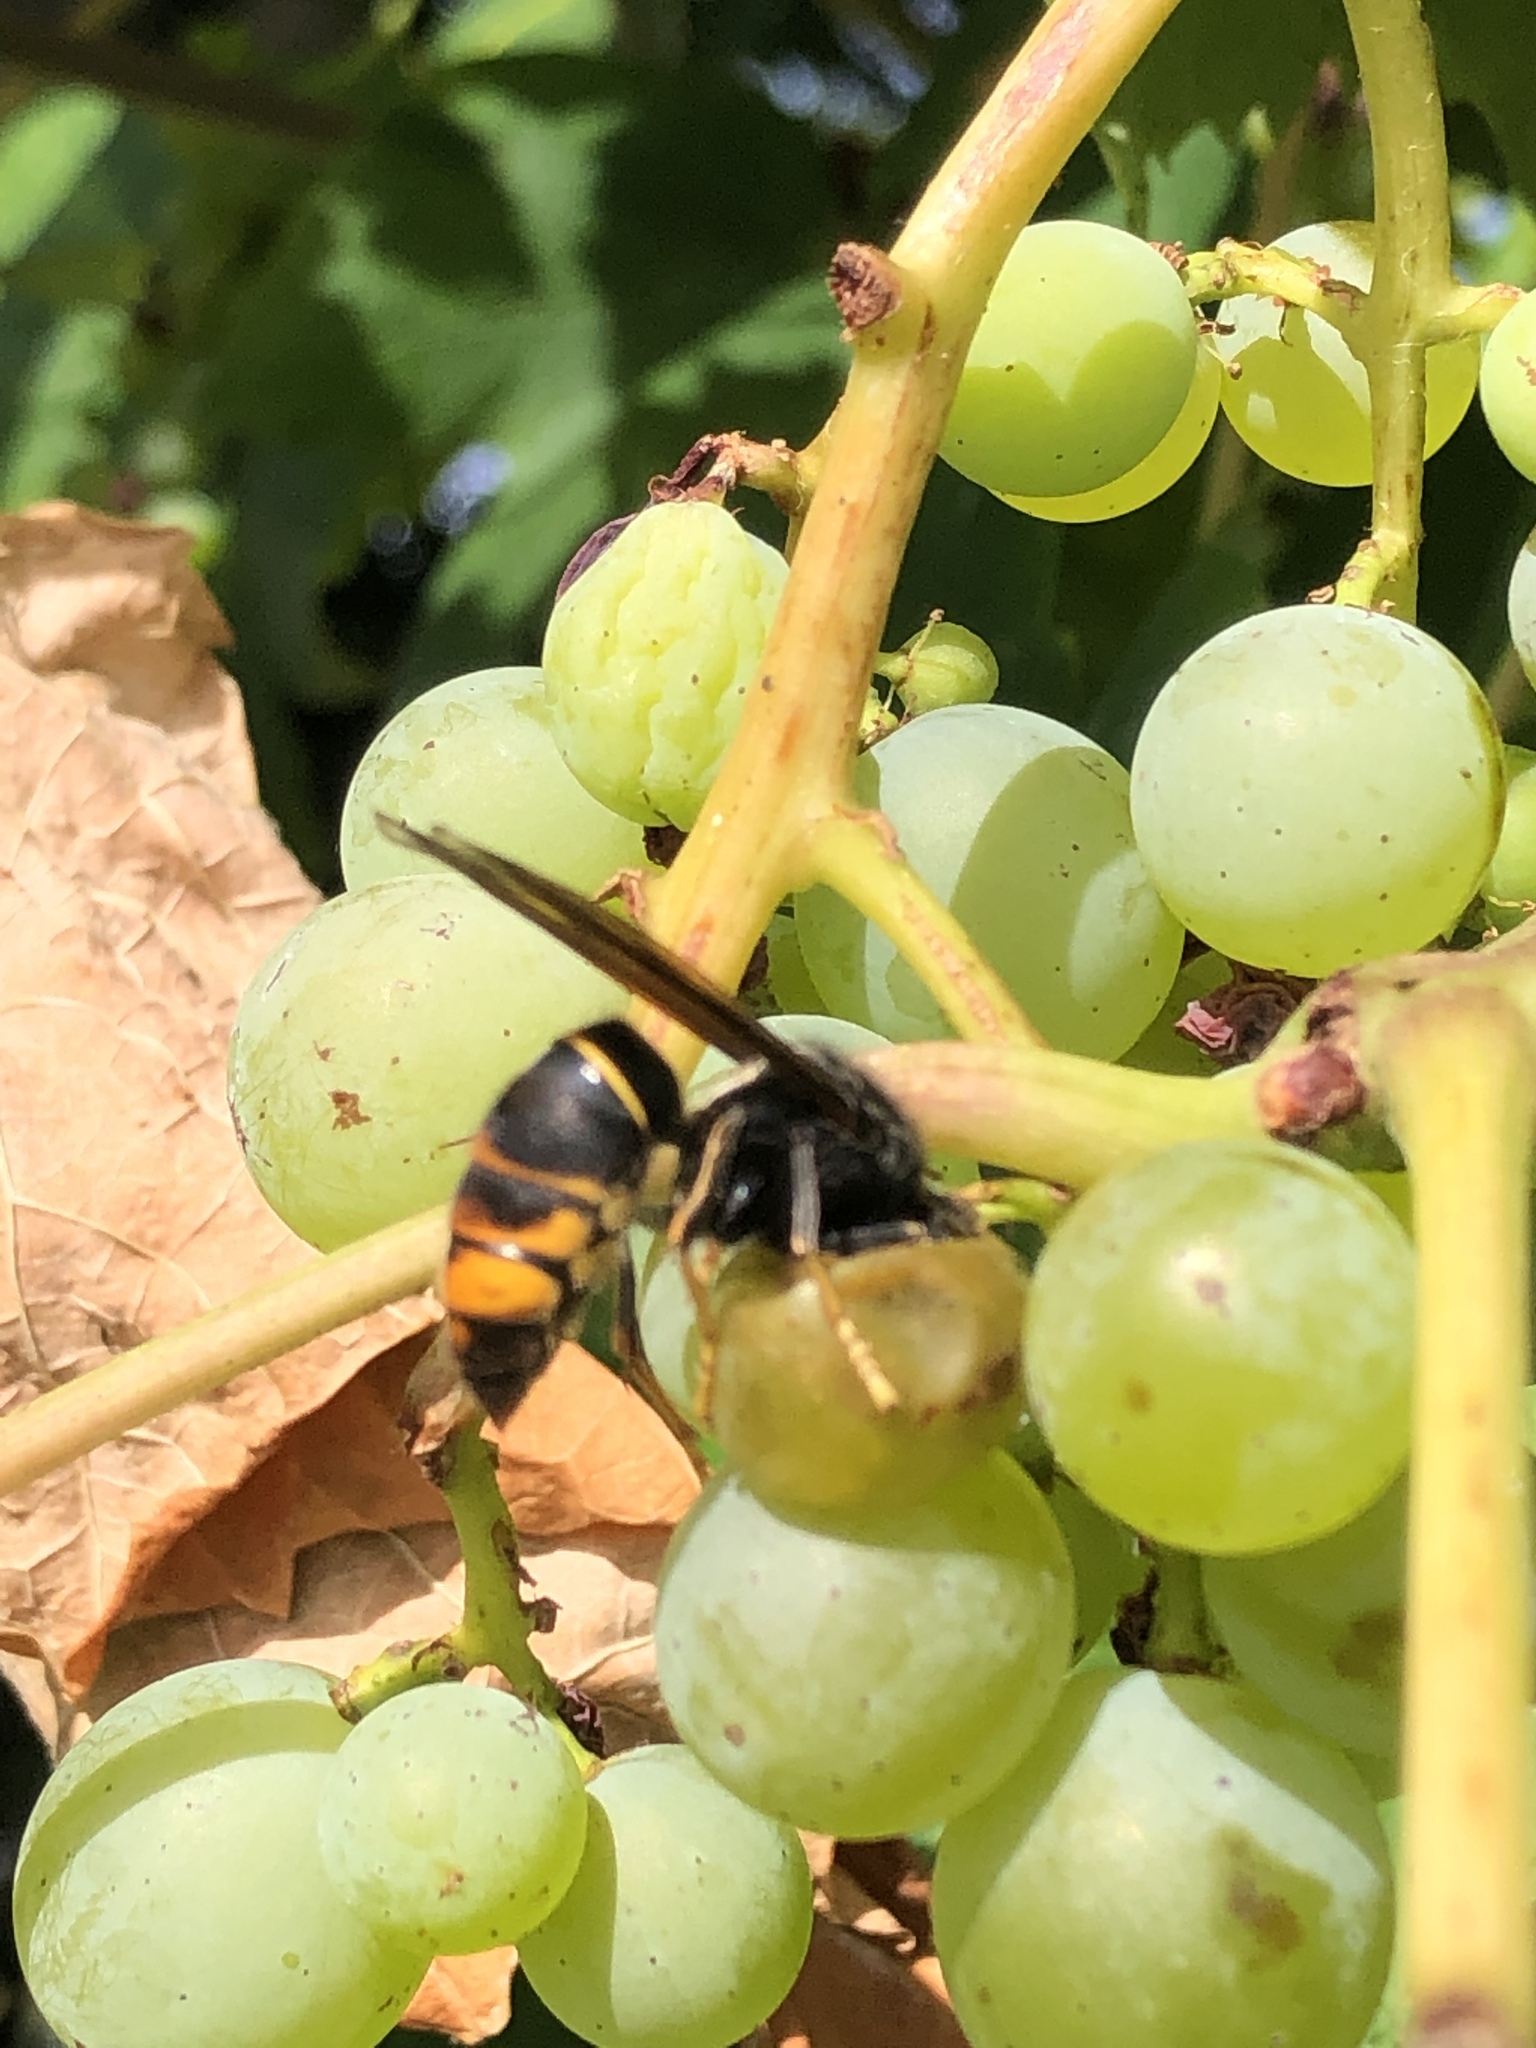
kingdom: Animalia
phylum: Arthropoda
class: Insecta
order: Hymenoptera
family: Vespidae
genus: Vespa
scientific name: Vespa velutina
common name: Asian hornet
